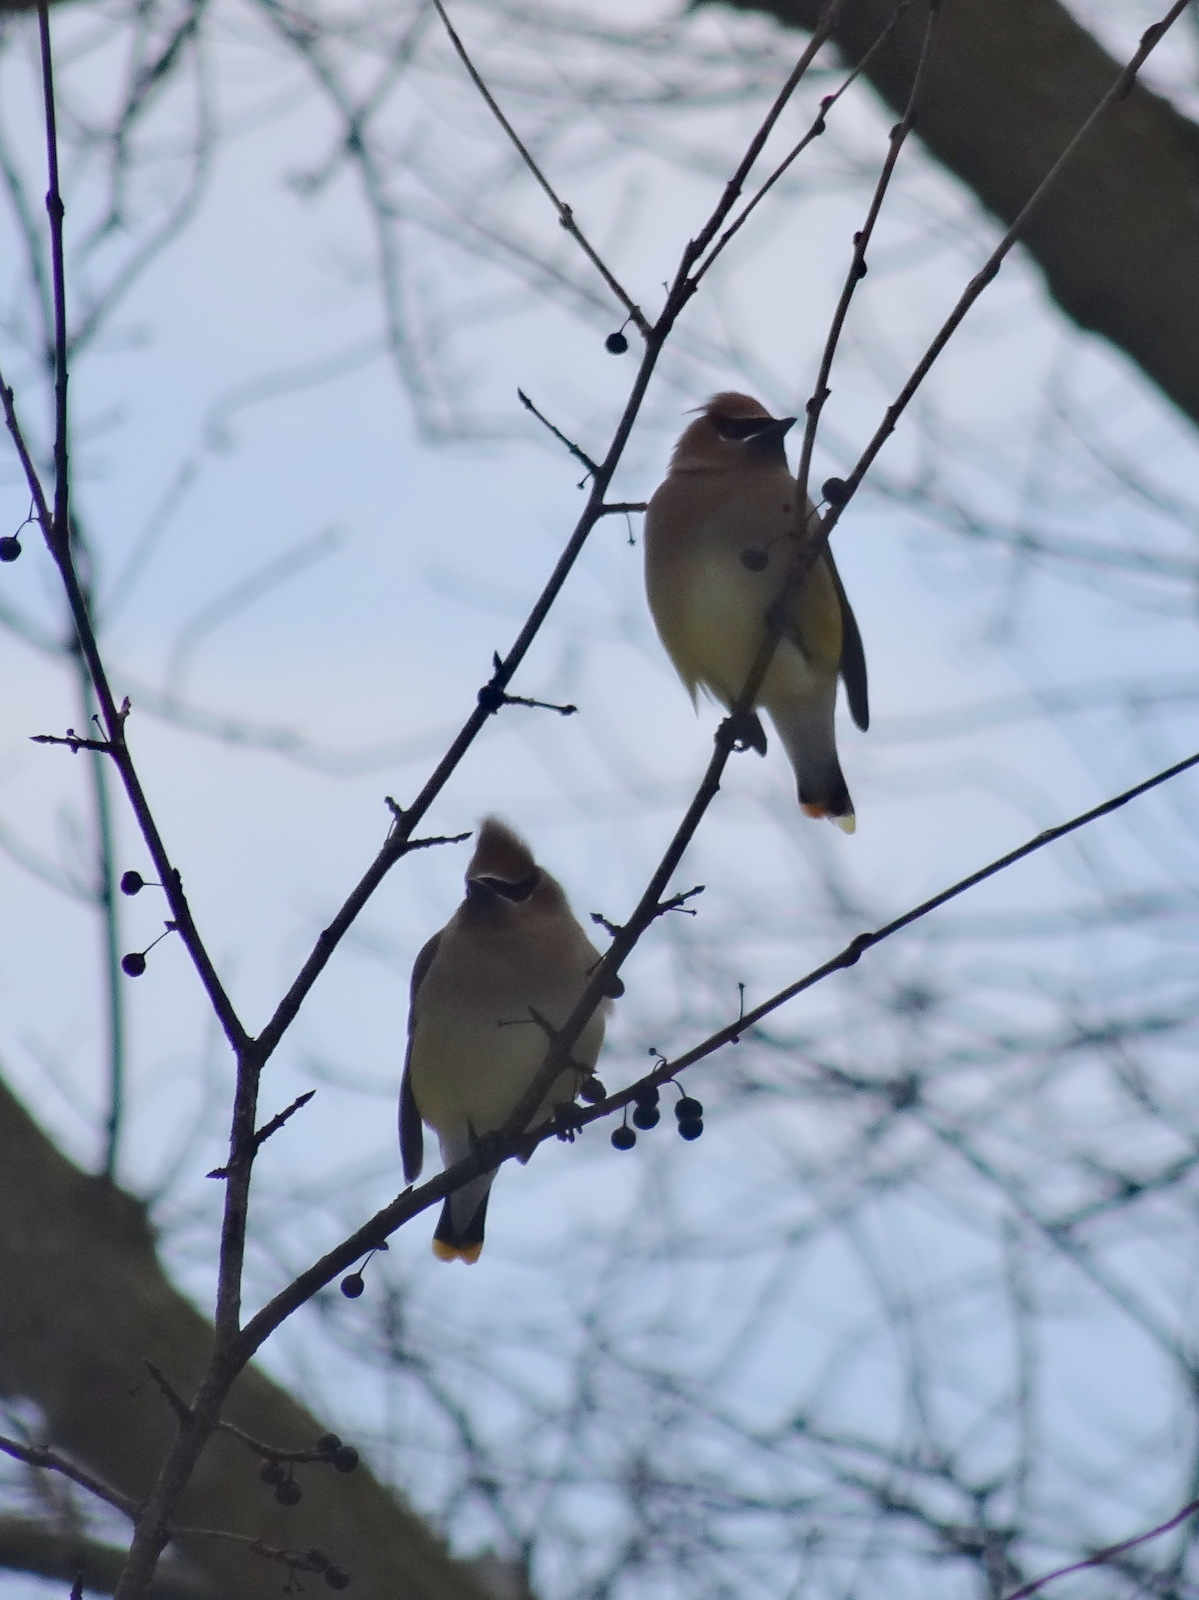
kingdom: Animalia
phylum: Chordata
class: Aves
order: Passeriformes
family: Bombycillidae
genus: Bombycilla
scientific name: Bombycilla cedrorum
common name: Cedar waxwing
